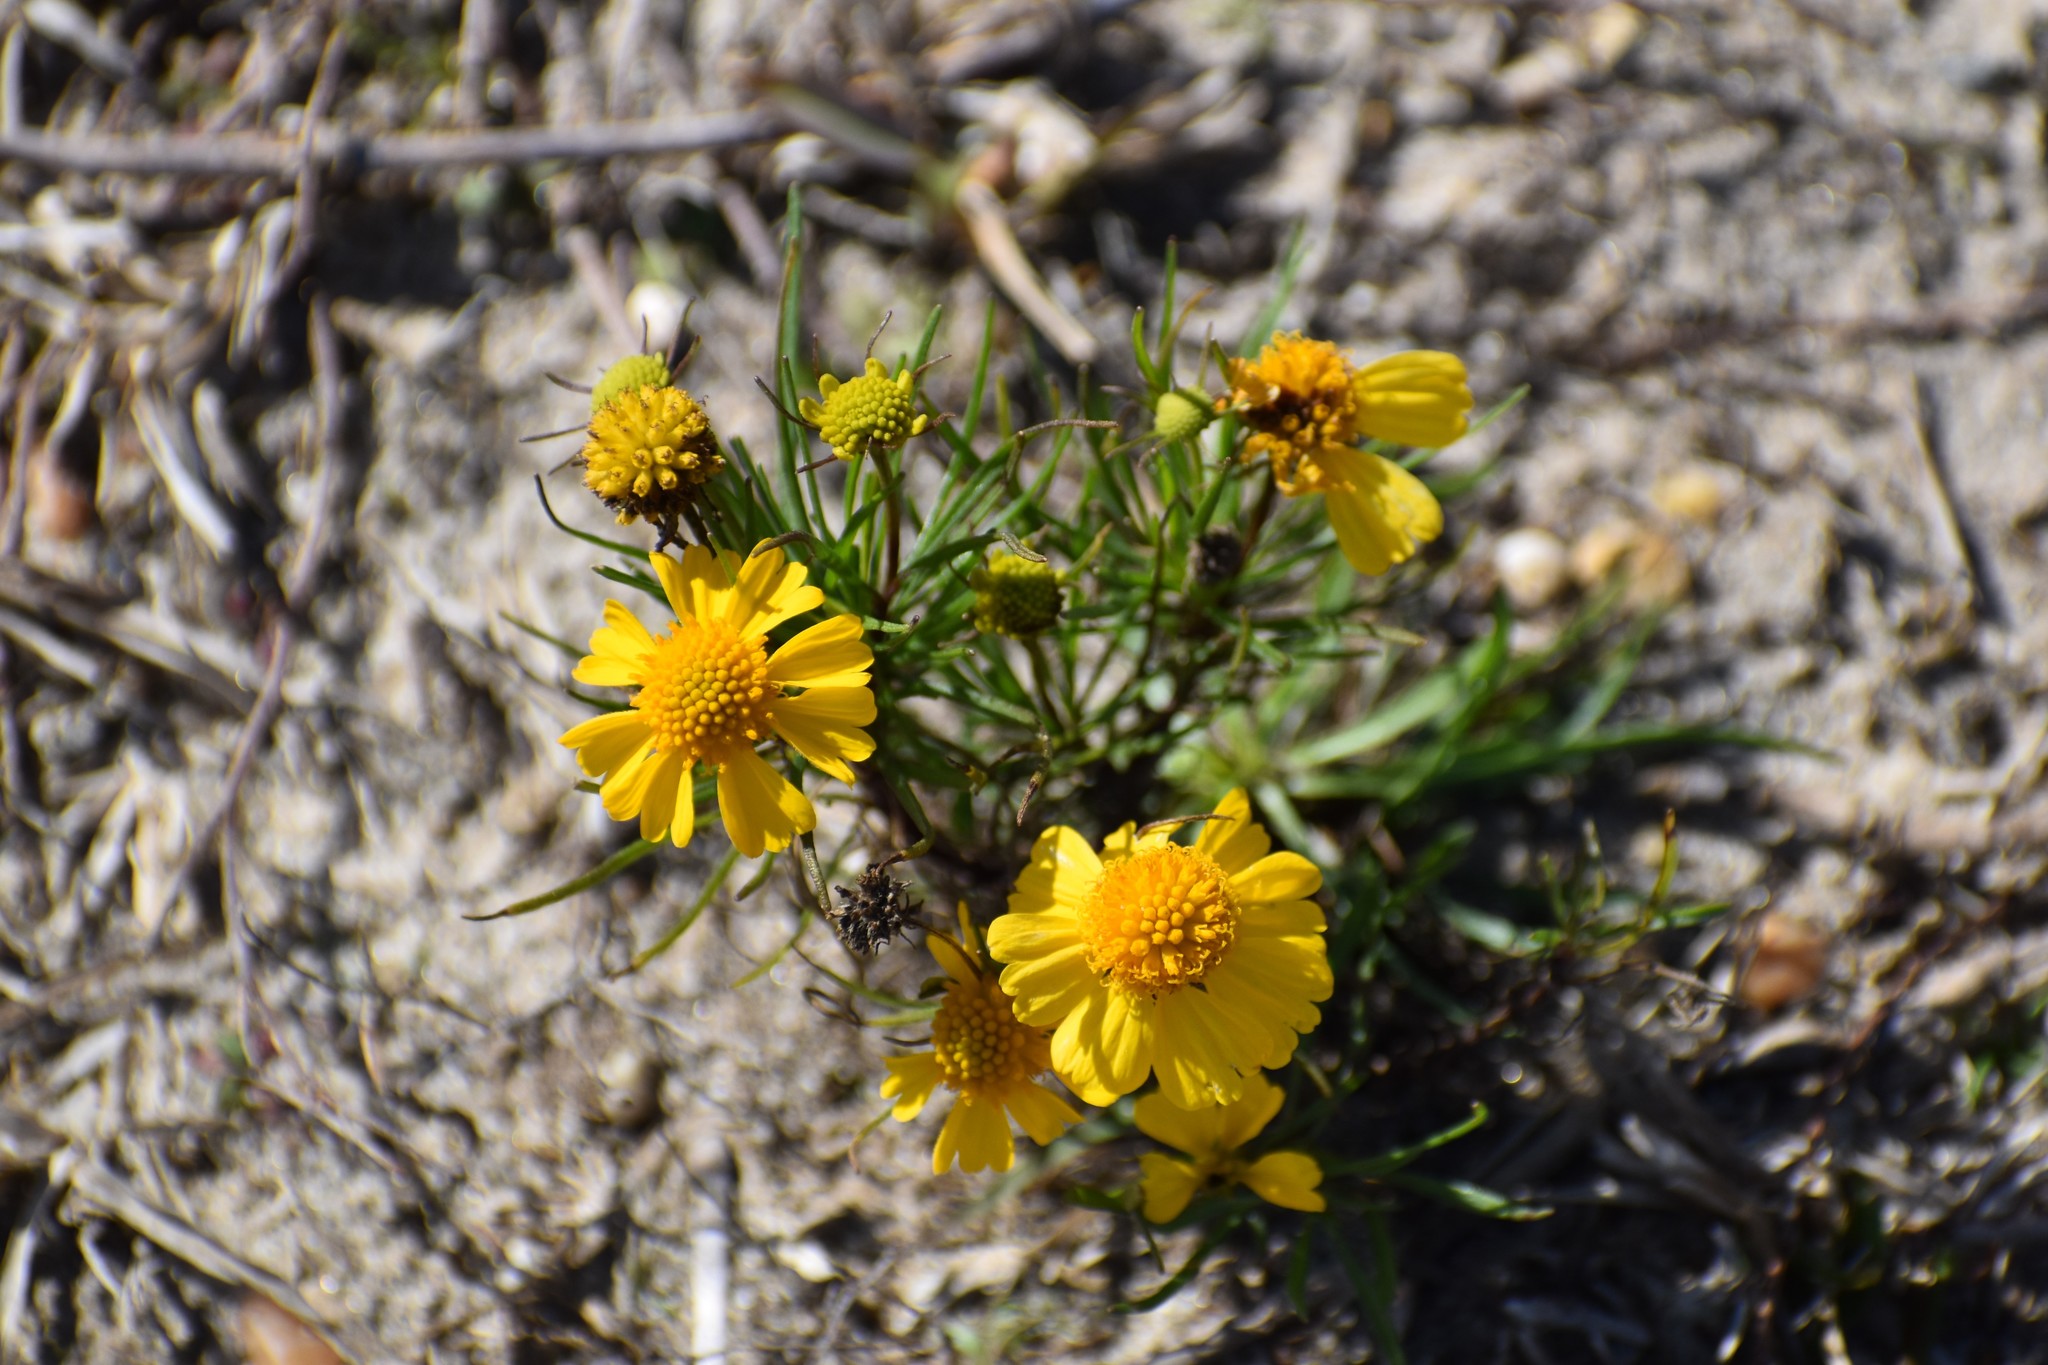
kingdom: Plantae
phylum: Tracheophyta
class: Magnoliopsida
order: Asterales
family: Asteraceae
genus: Helenium
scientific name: Helenium amarum
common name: Bitter sneezeweed
